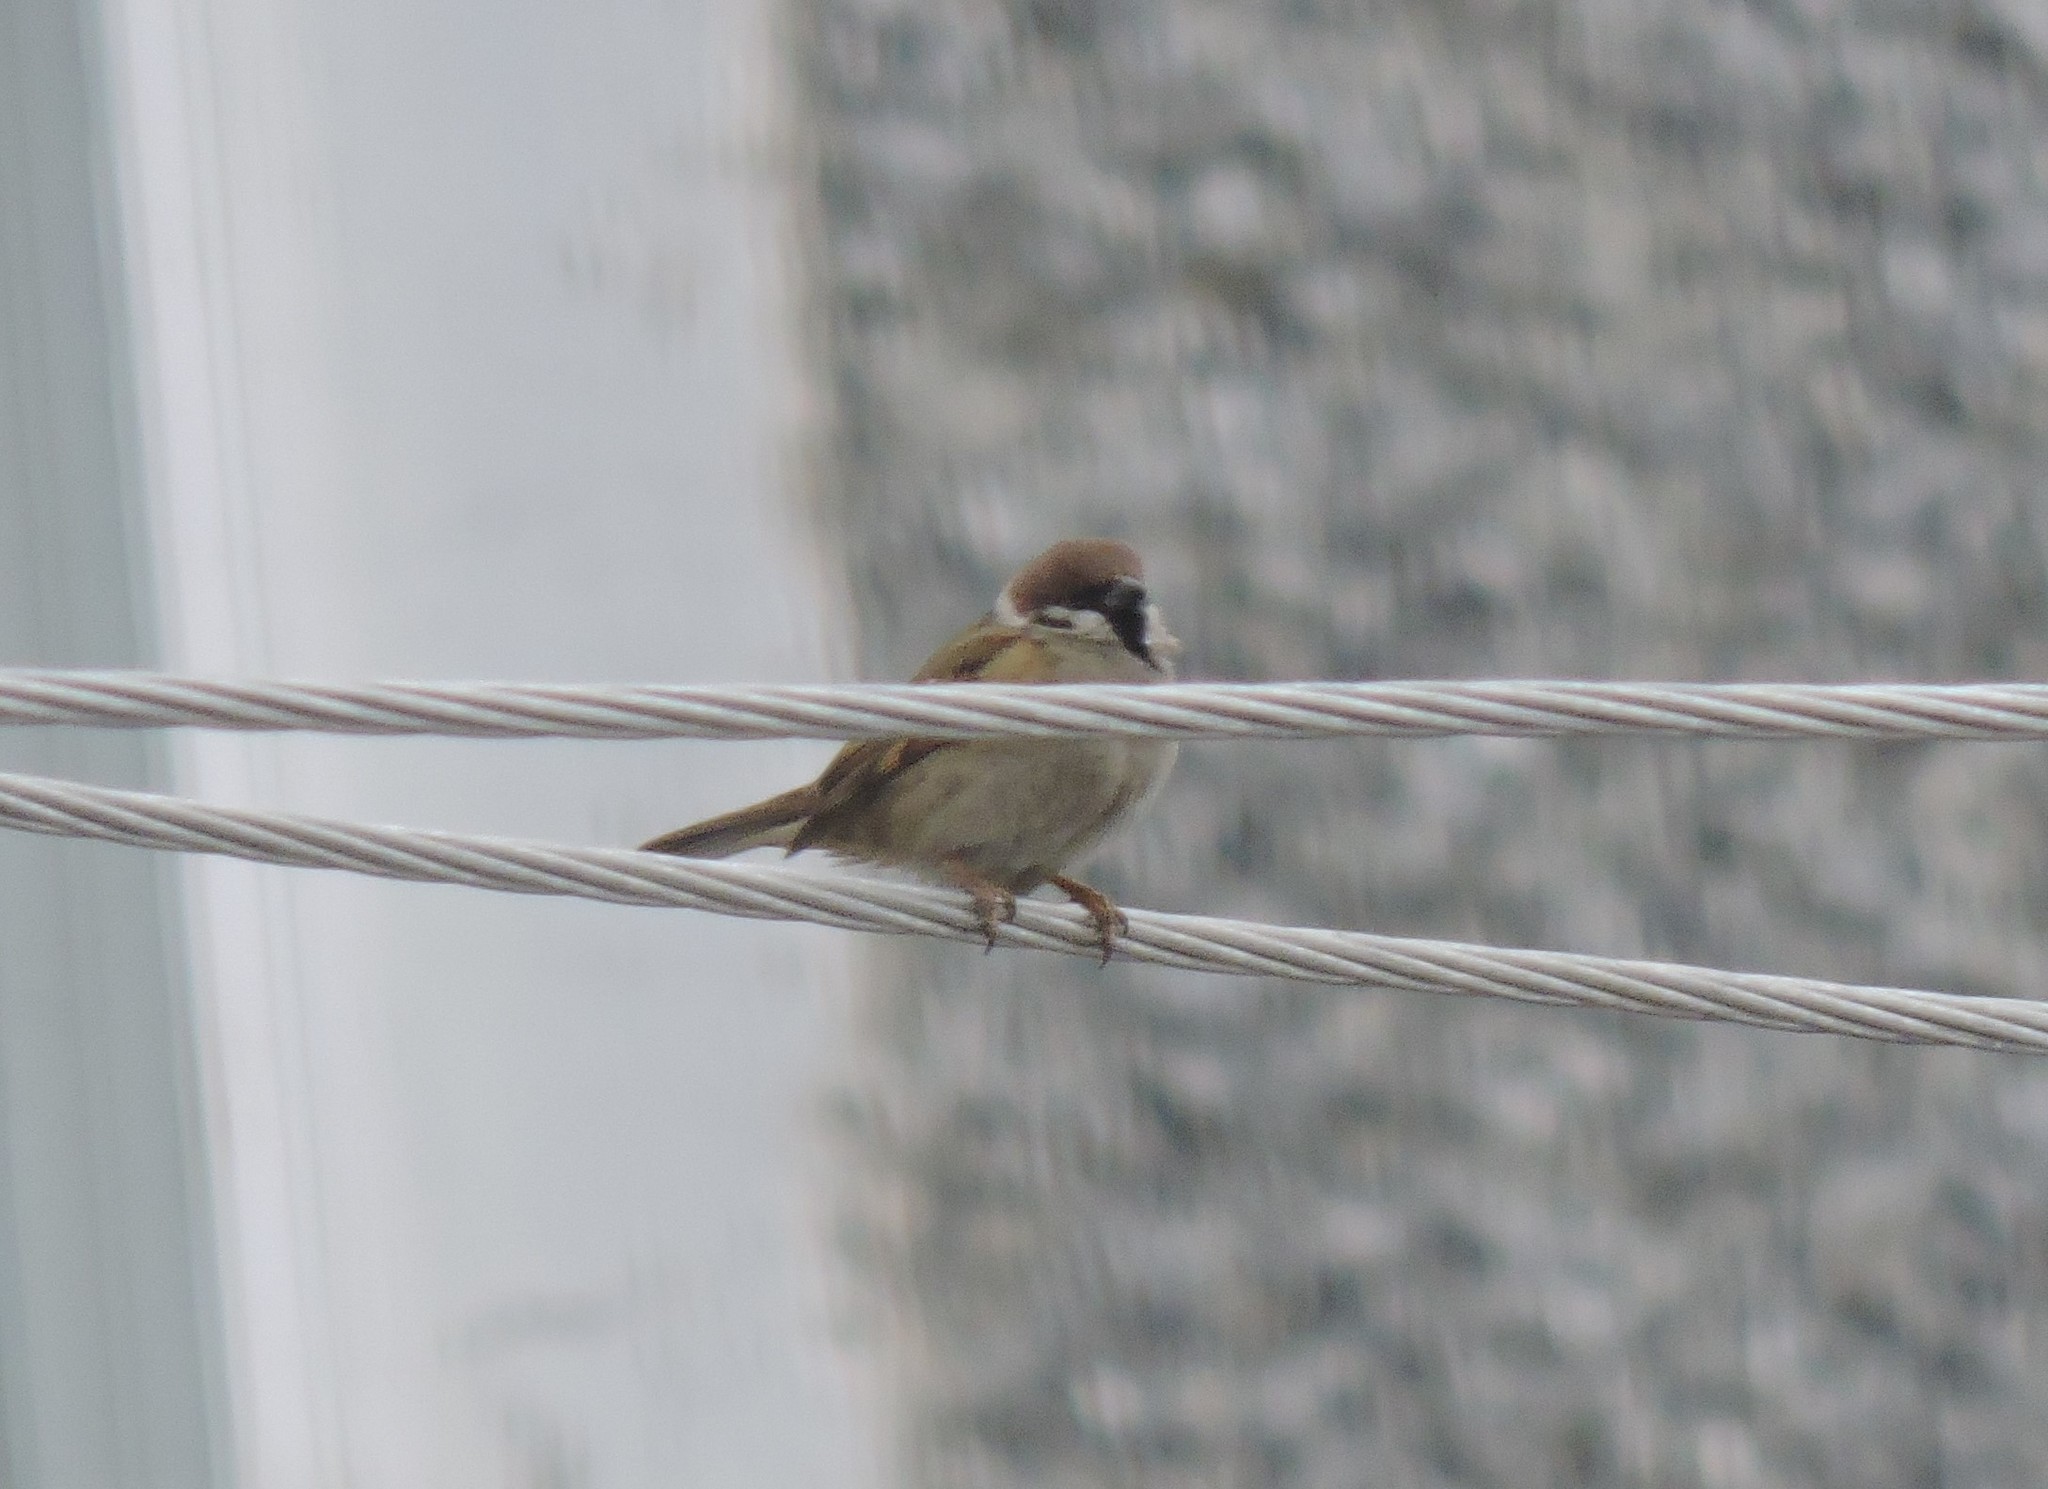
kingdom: Animalia
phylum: Chordata
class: Aves
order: Passeriformes
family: Passeridae
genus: Passer
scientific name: Passer montanus
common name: Eurasian tree sparrow
